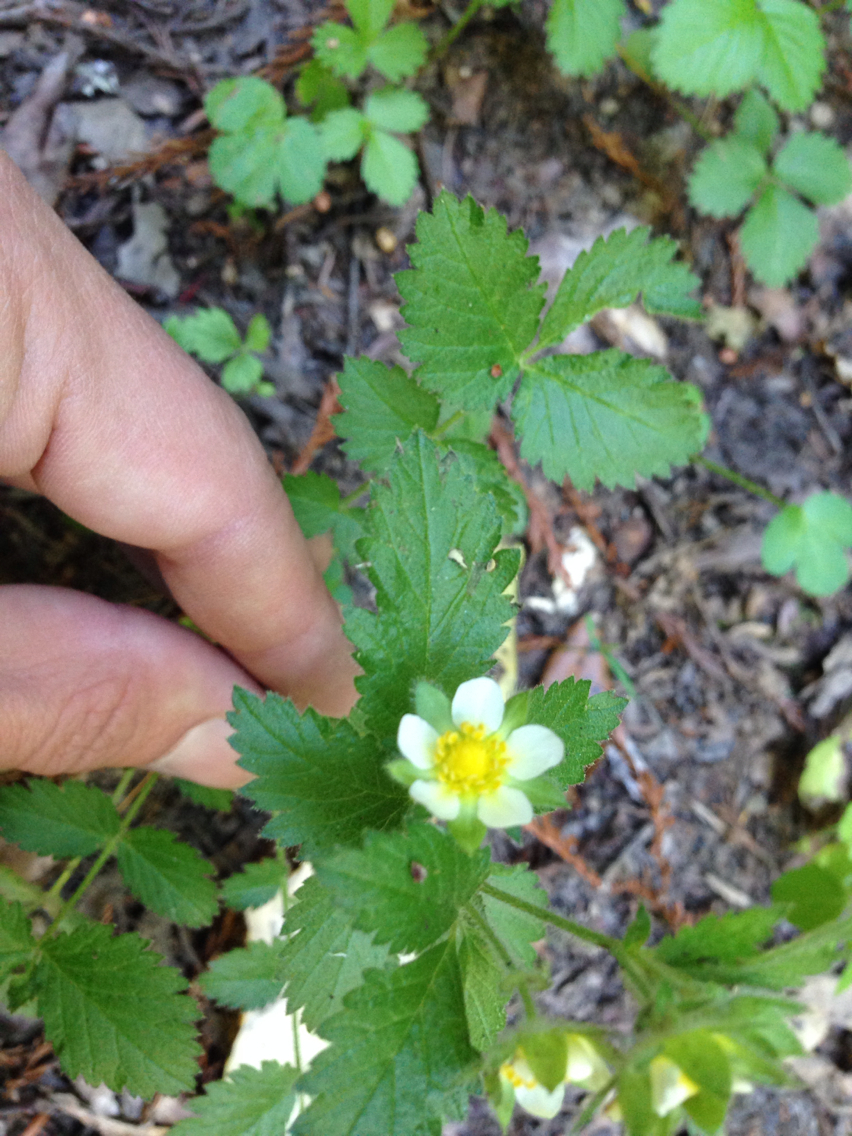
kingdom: Plantae
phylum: Tracheophyta
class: Magnoliopsida
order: Rosales
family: Rosaceae
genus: Drymocallis
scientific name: Drymocallis glandulosa
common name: Sticky cinquefoil
